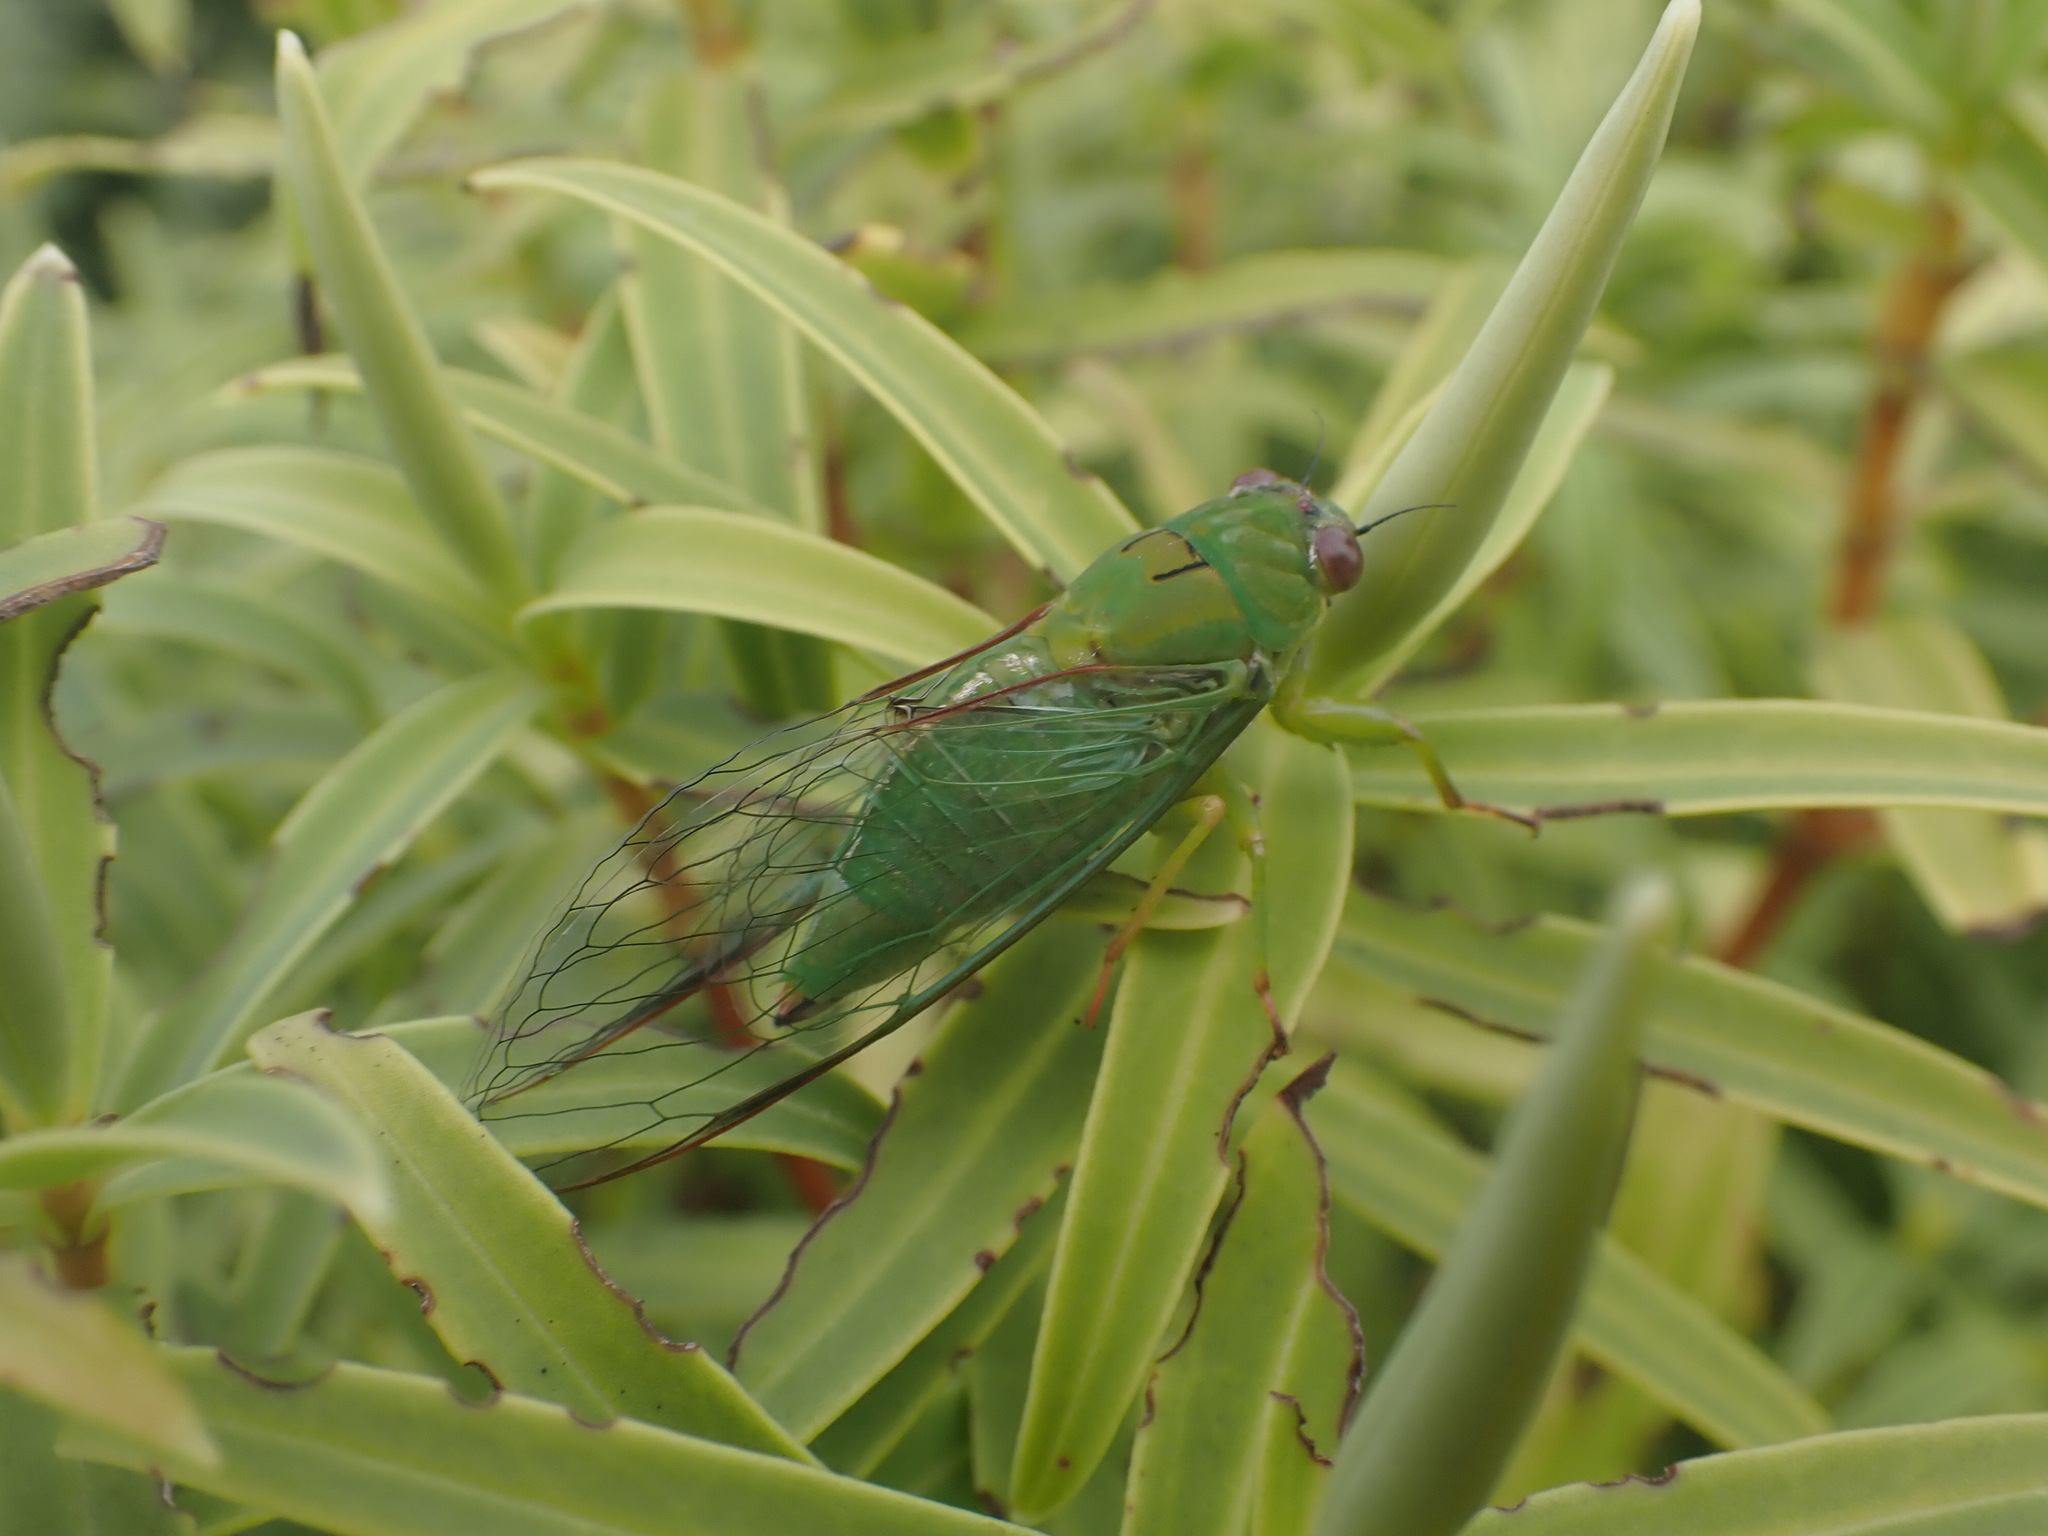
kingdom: Animalia
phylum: Arthropoda
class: Insecta
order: Hemiptera
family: Cicadidae
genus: Kikihia
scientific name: Kikihia ochrina
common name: April green cicada
